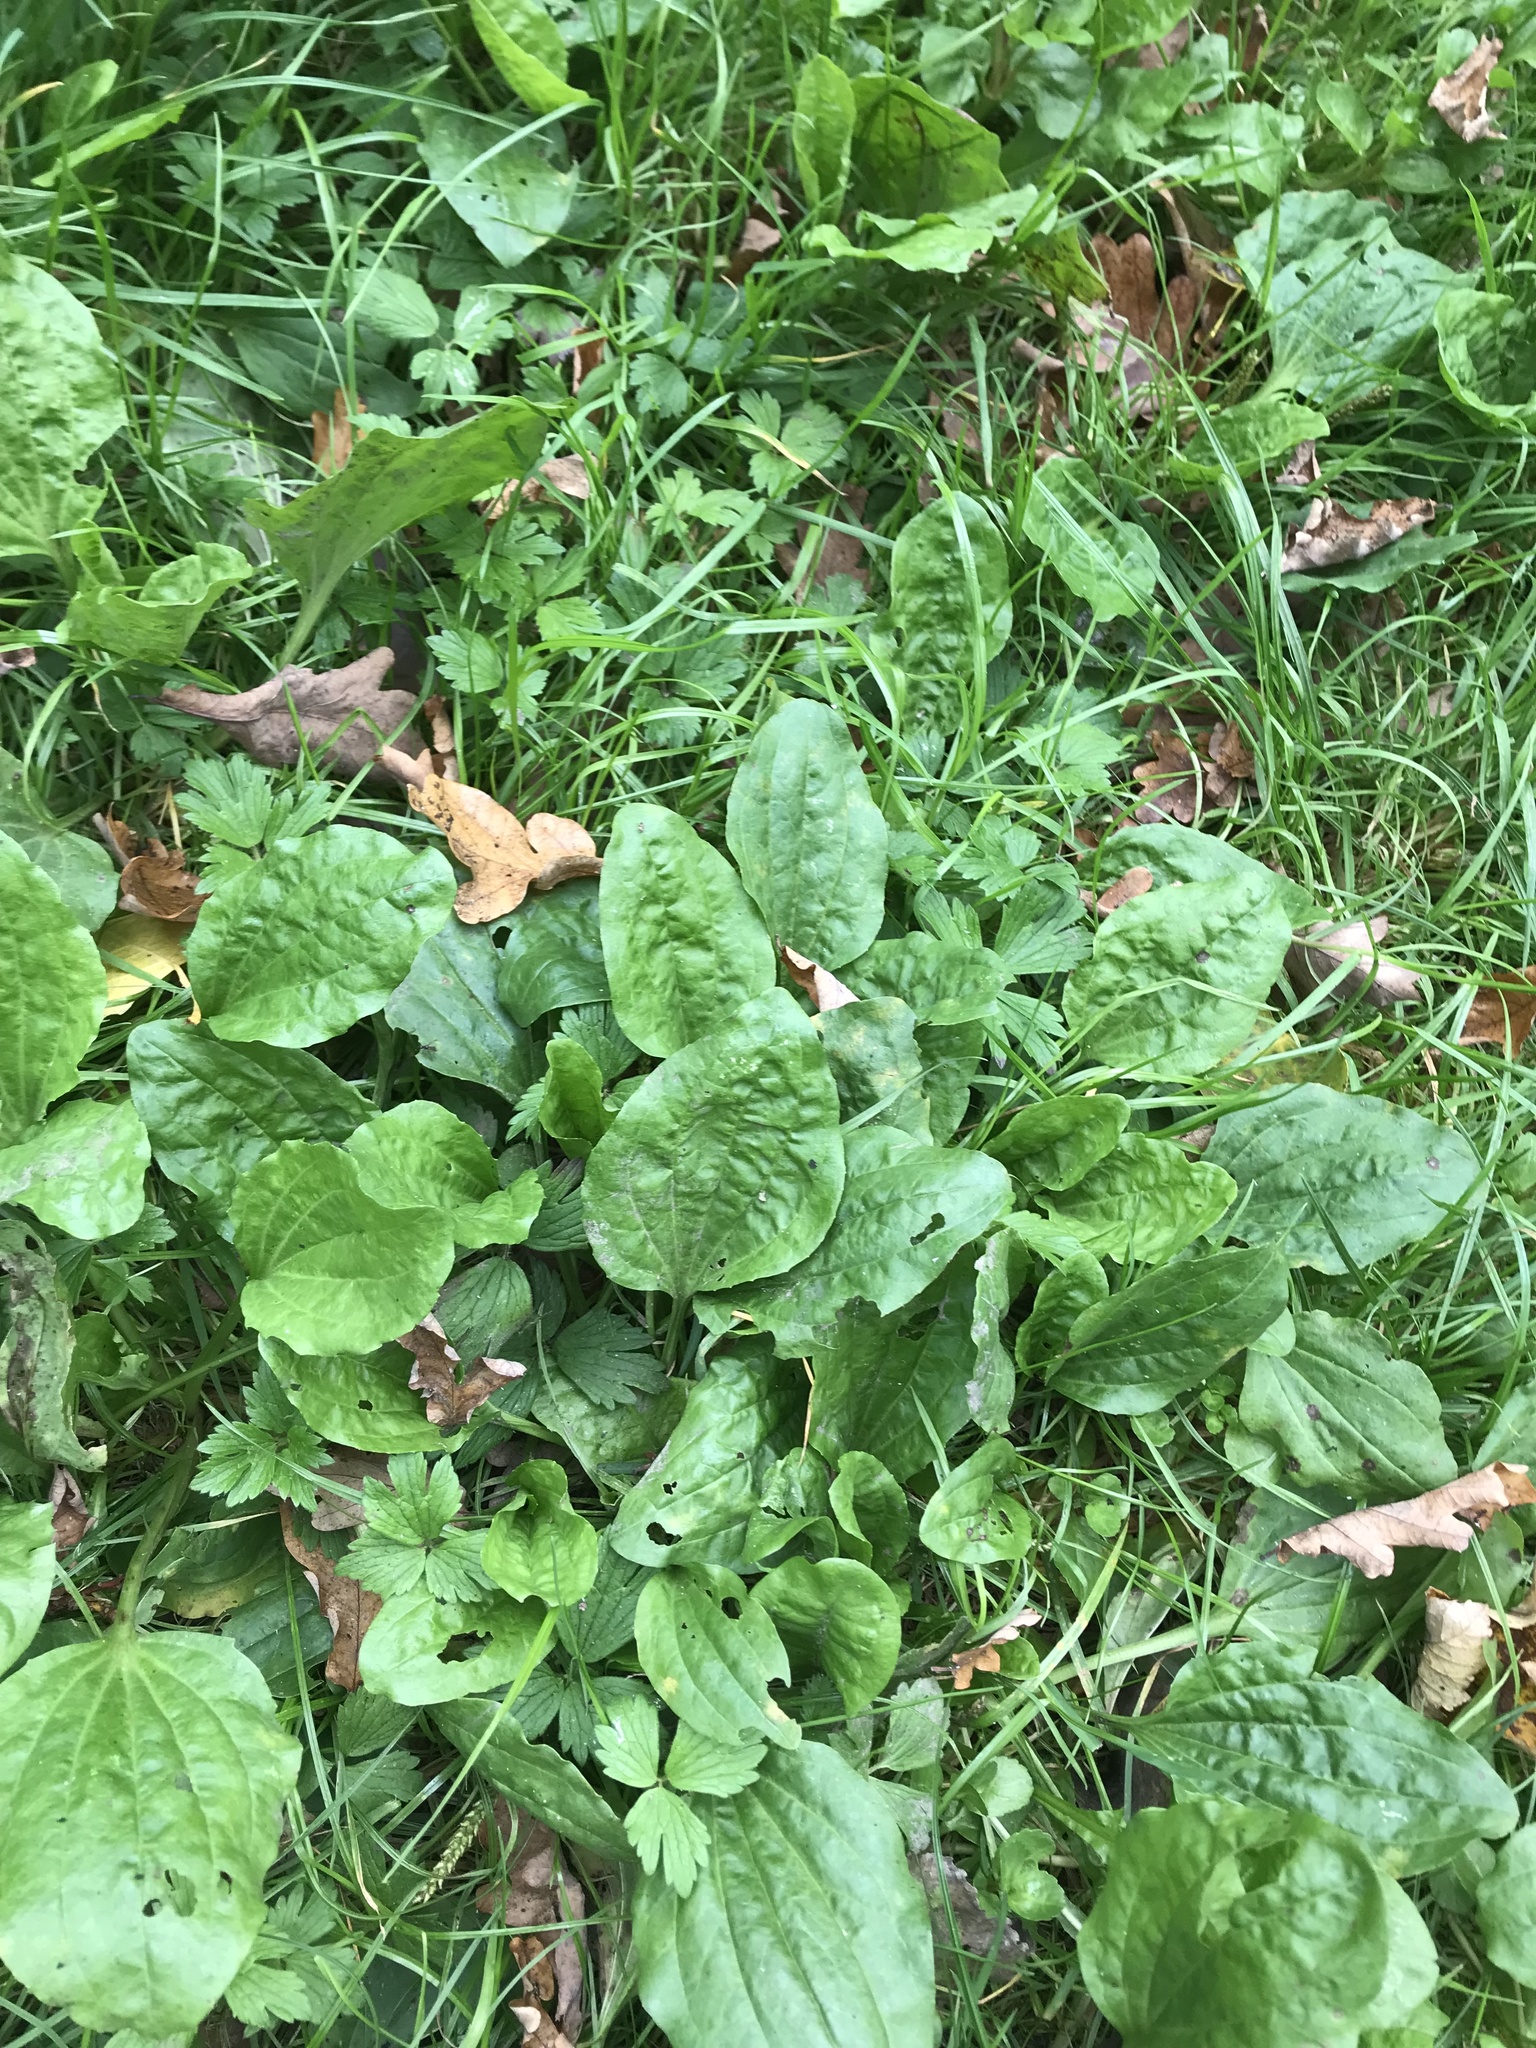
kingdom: Plantae
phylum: Tracheophyta
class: Magnoliopsida
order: Lamiales
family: Plantaginaceae
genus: Plantago
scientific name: Plantago major
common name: Common plantain
